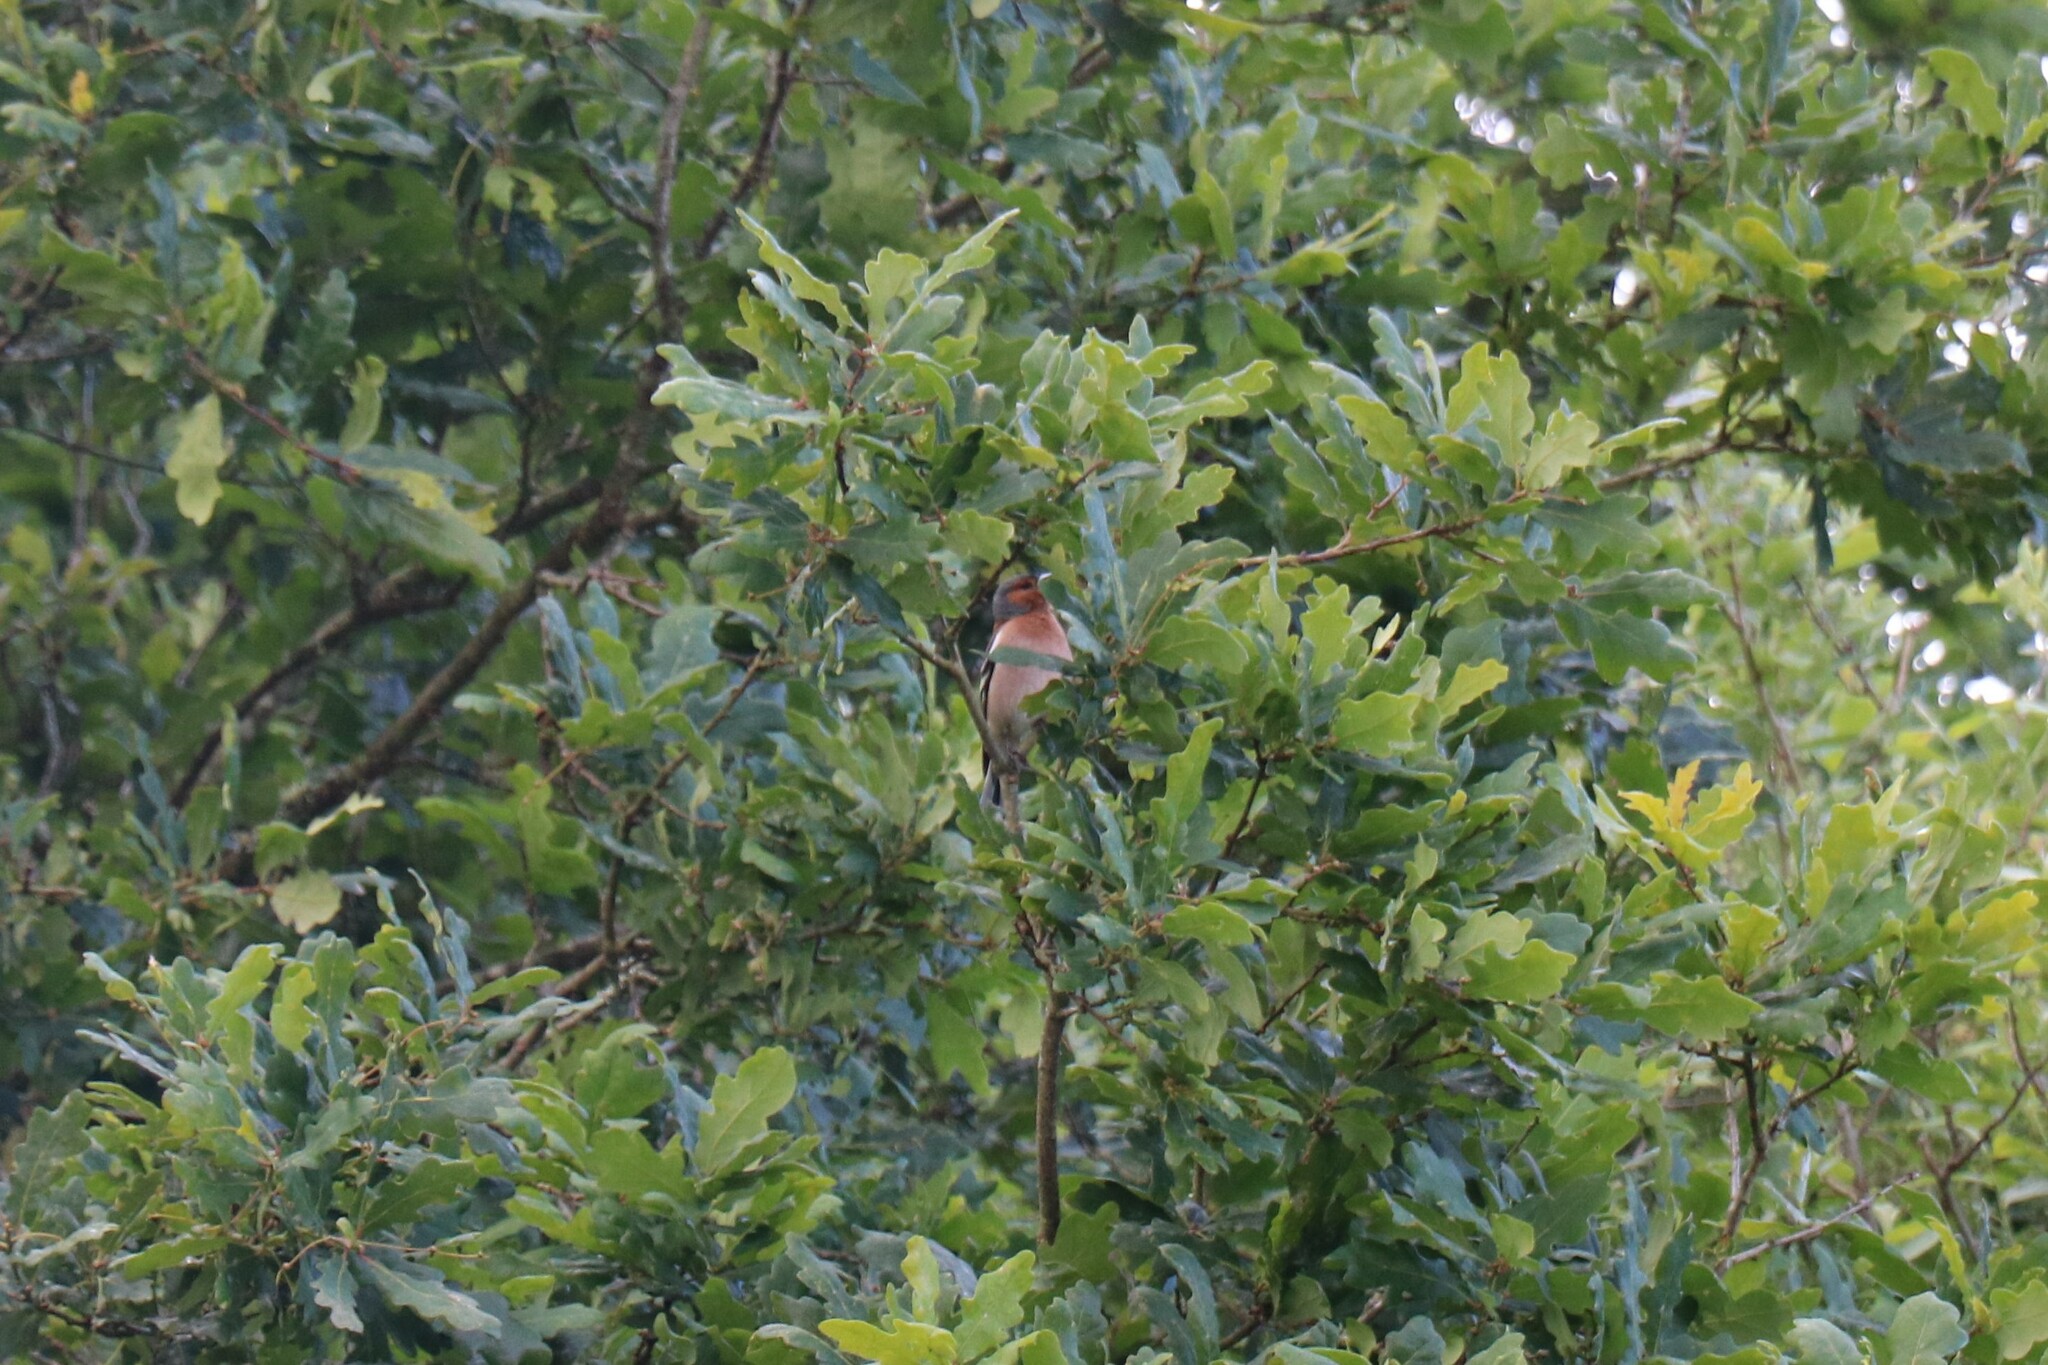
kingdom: Animalia
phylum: Chordata
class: Aves
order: Passeriformes
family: Fringillidae
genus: Fringilla
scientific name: Fringilla coelebs
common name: Common chaffinch
